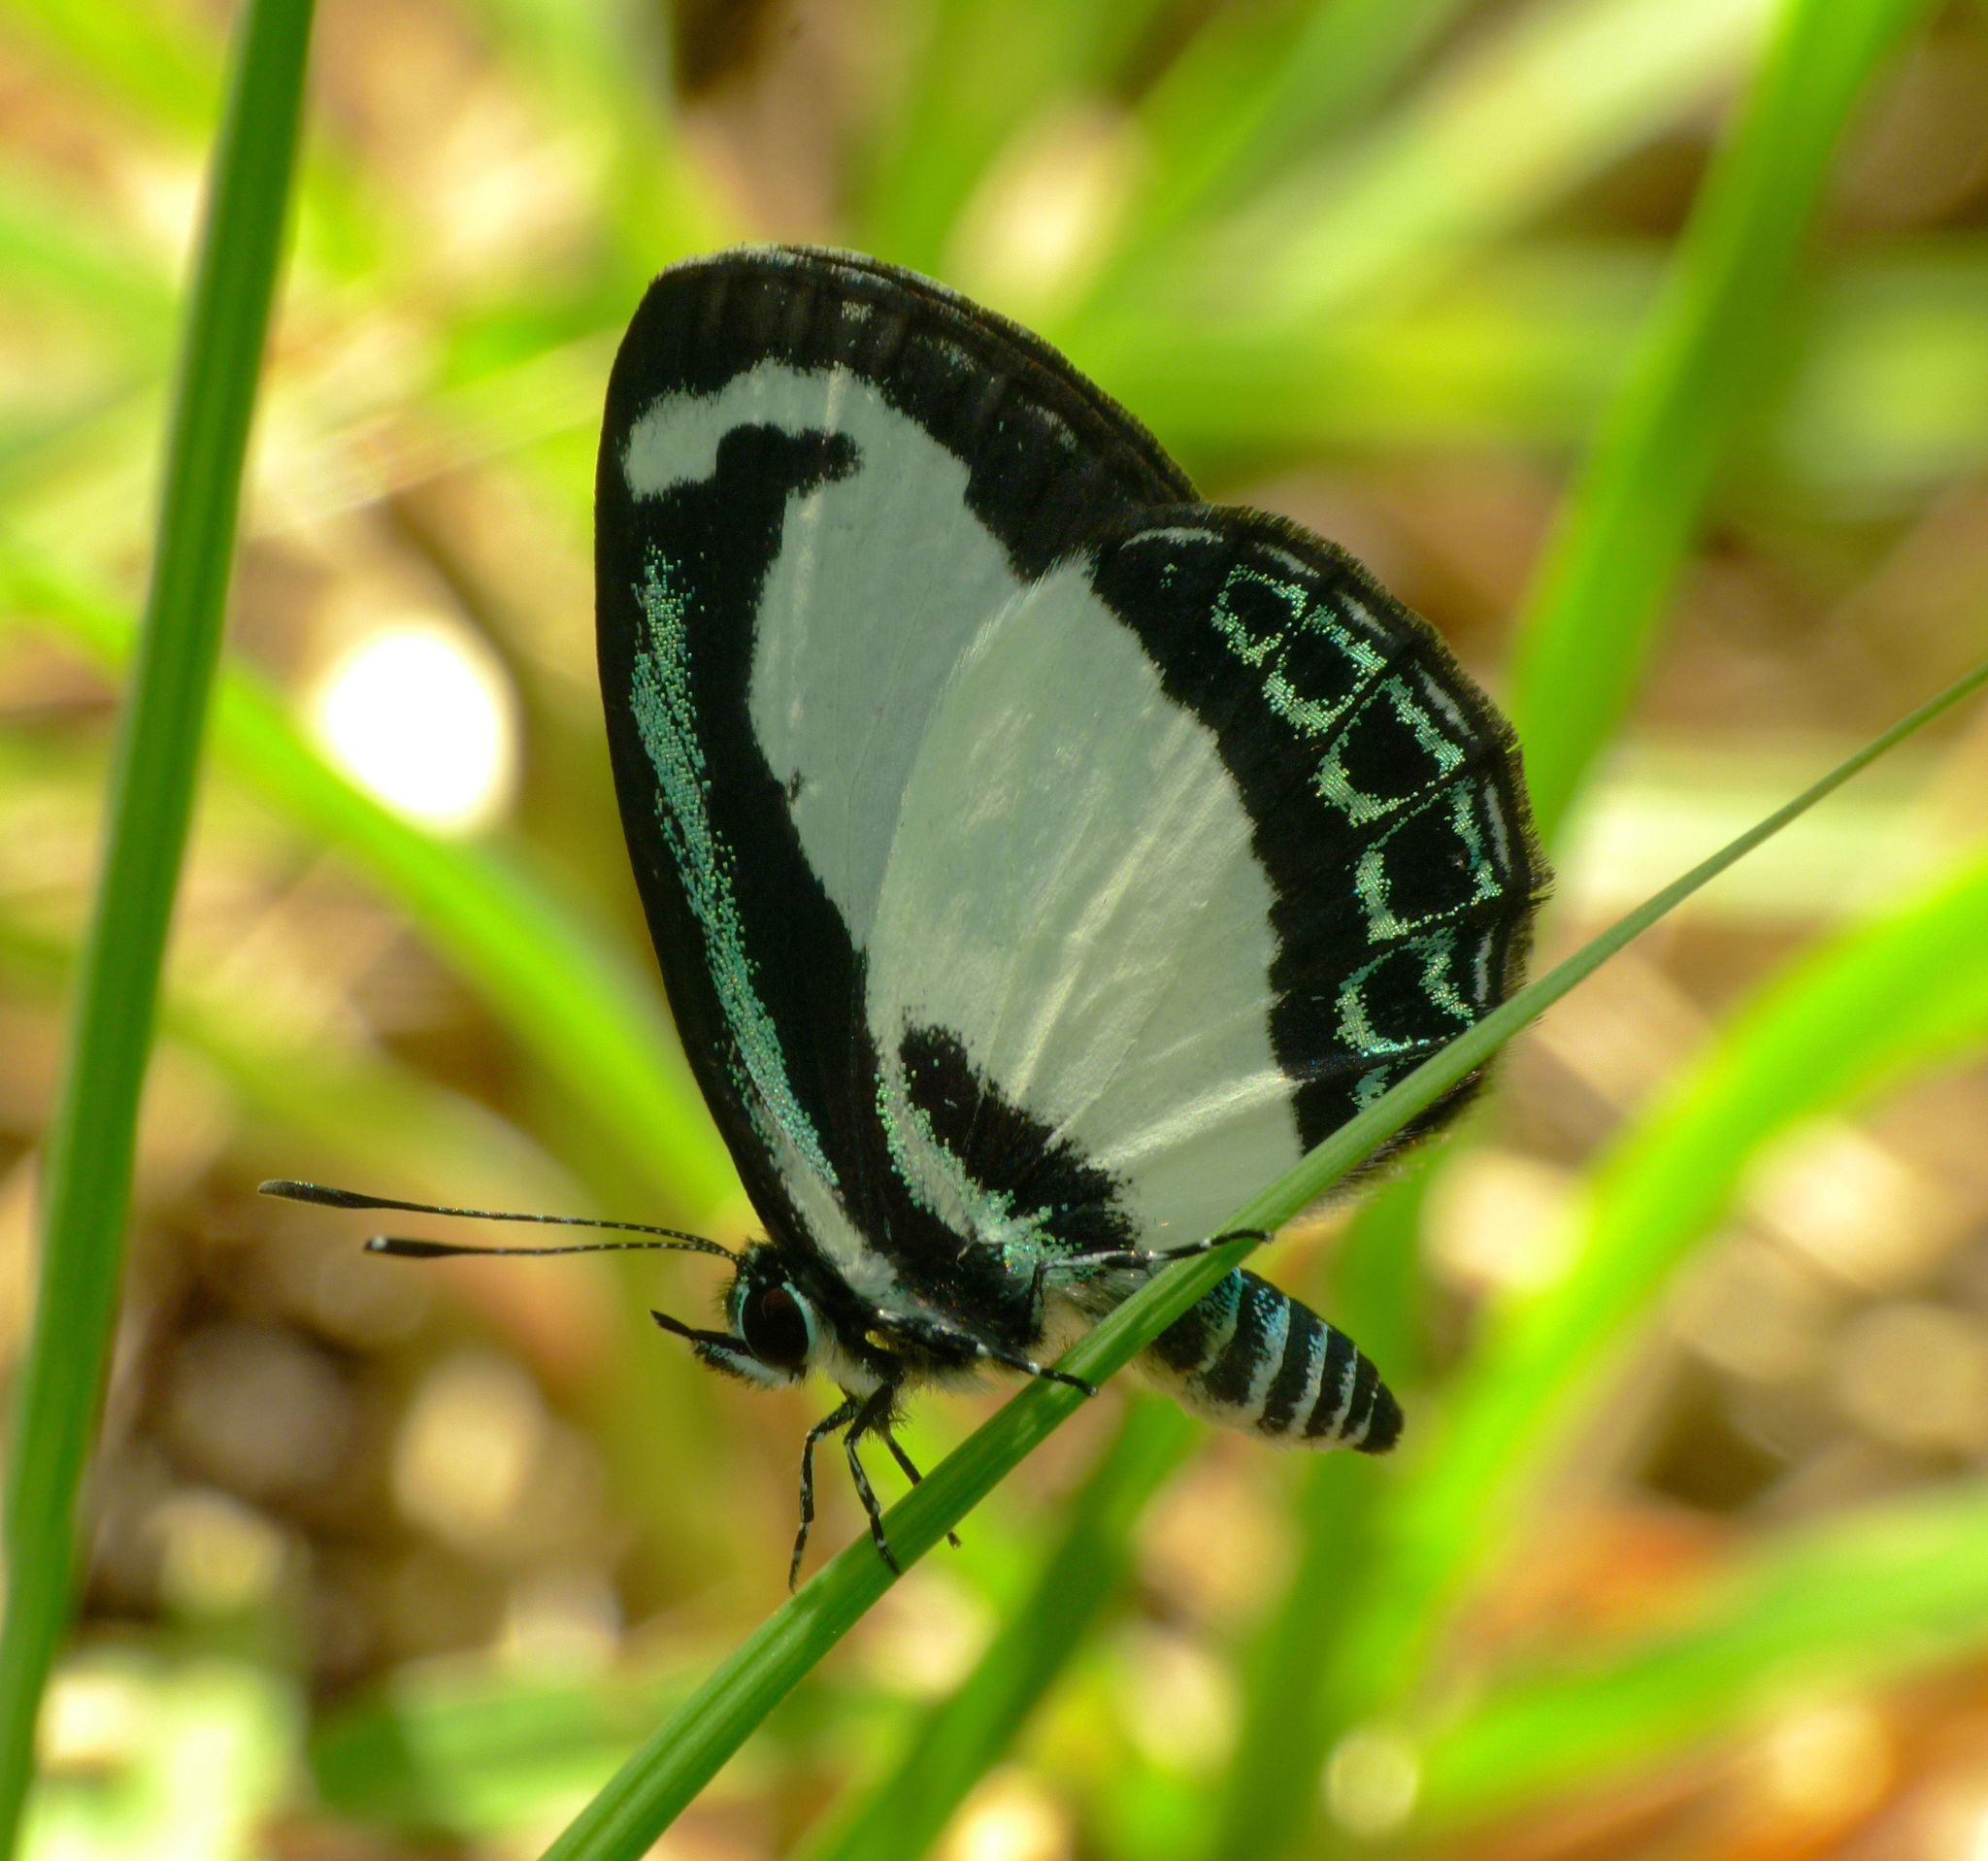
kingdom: Animalia
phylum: Arthropoda
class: Insecta
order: Lepidoptera
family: Lycaenidae
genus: Psychonotis
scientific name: Psychonotis caelius
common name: Small green banded blue
